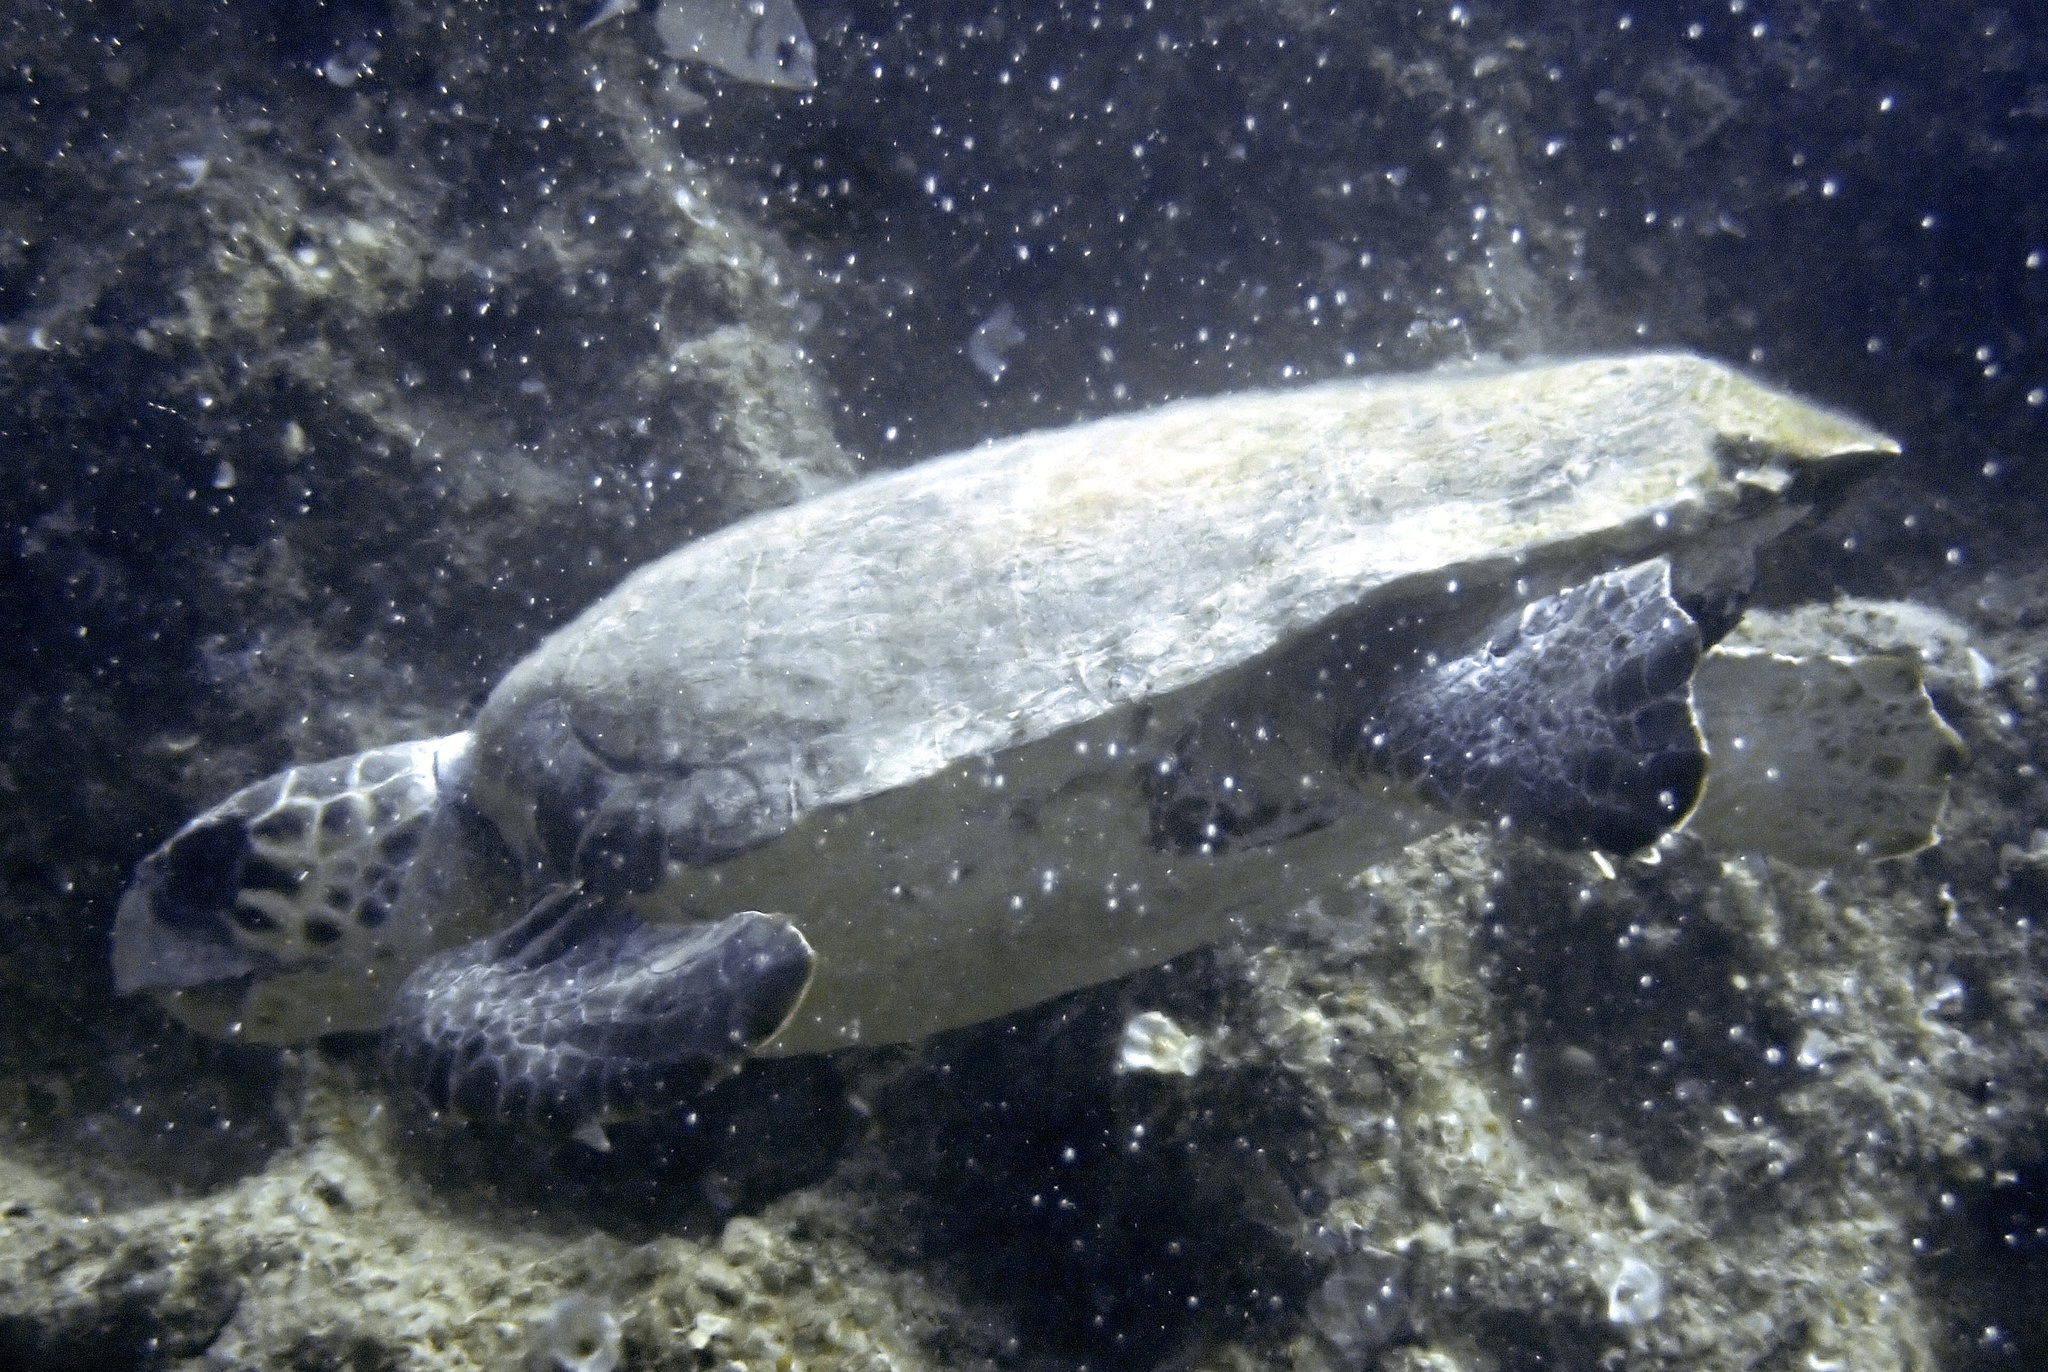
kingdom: Animalia
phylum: Chordata
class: Testudines
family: Cheloniidae
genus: Caretta
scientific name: Caretta caretta
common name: Loggerhead sea turtle
